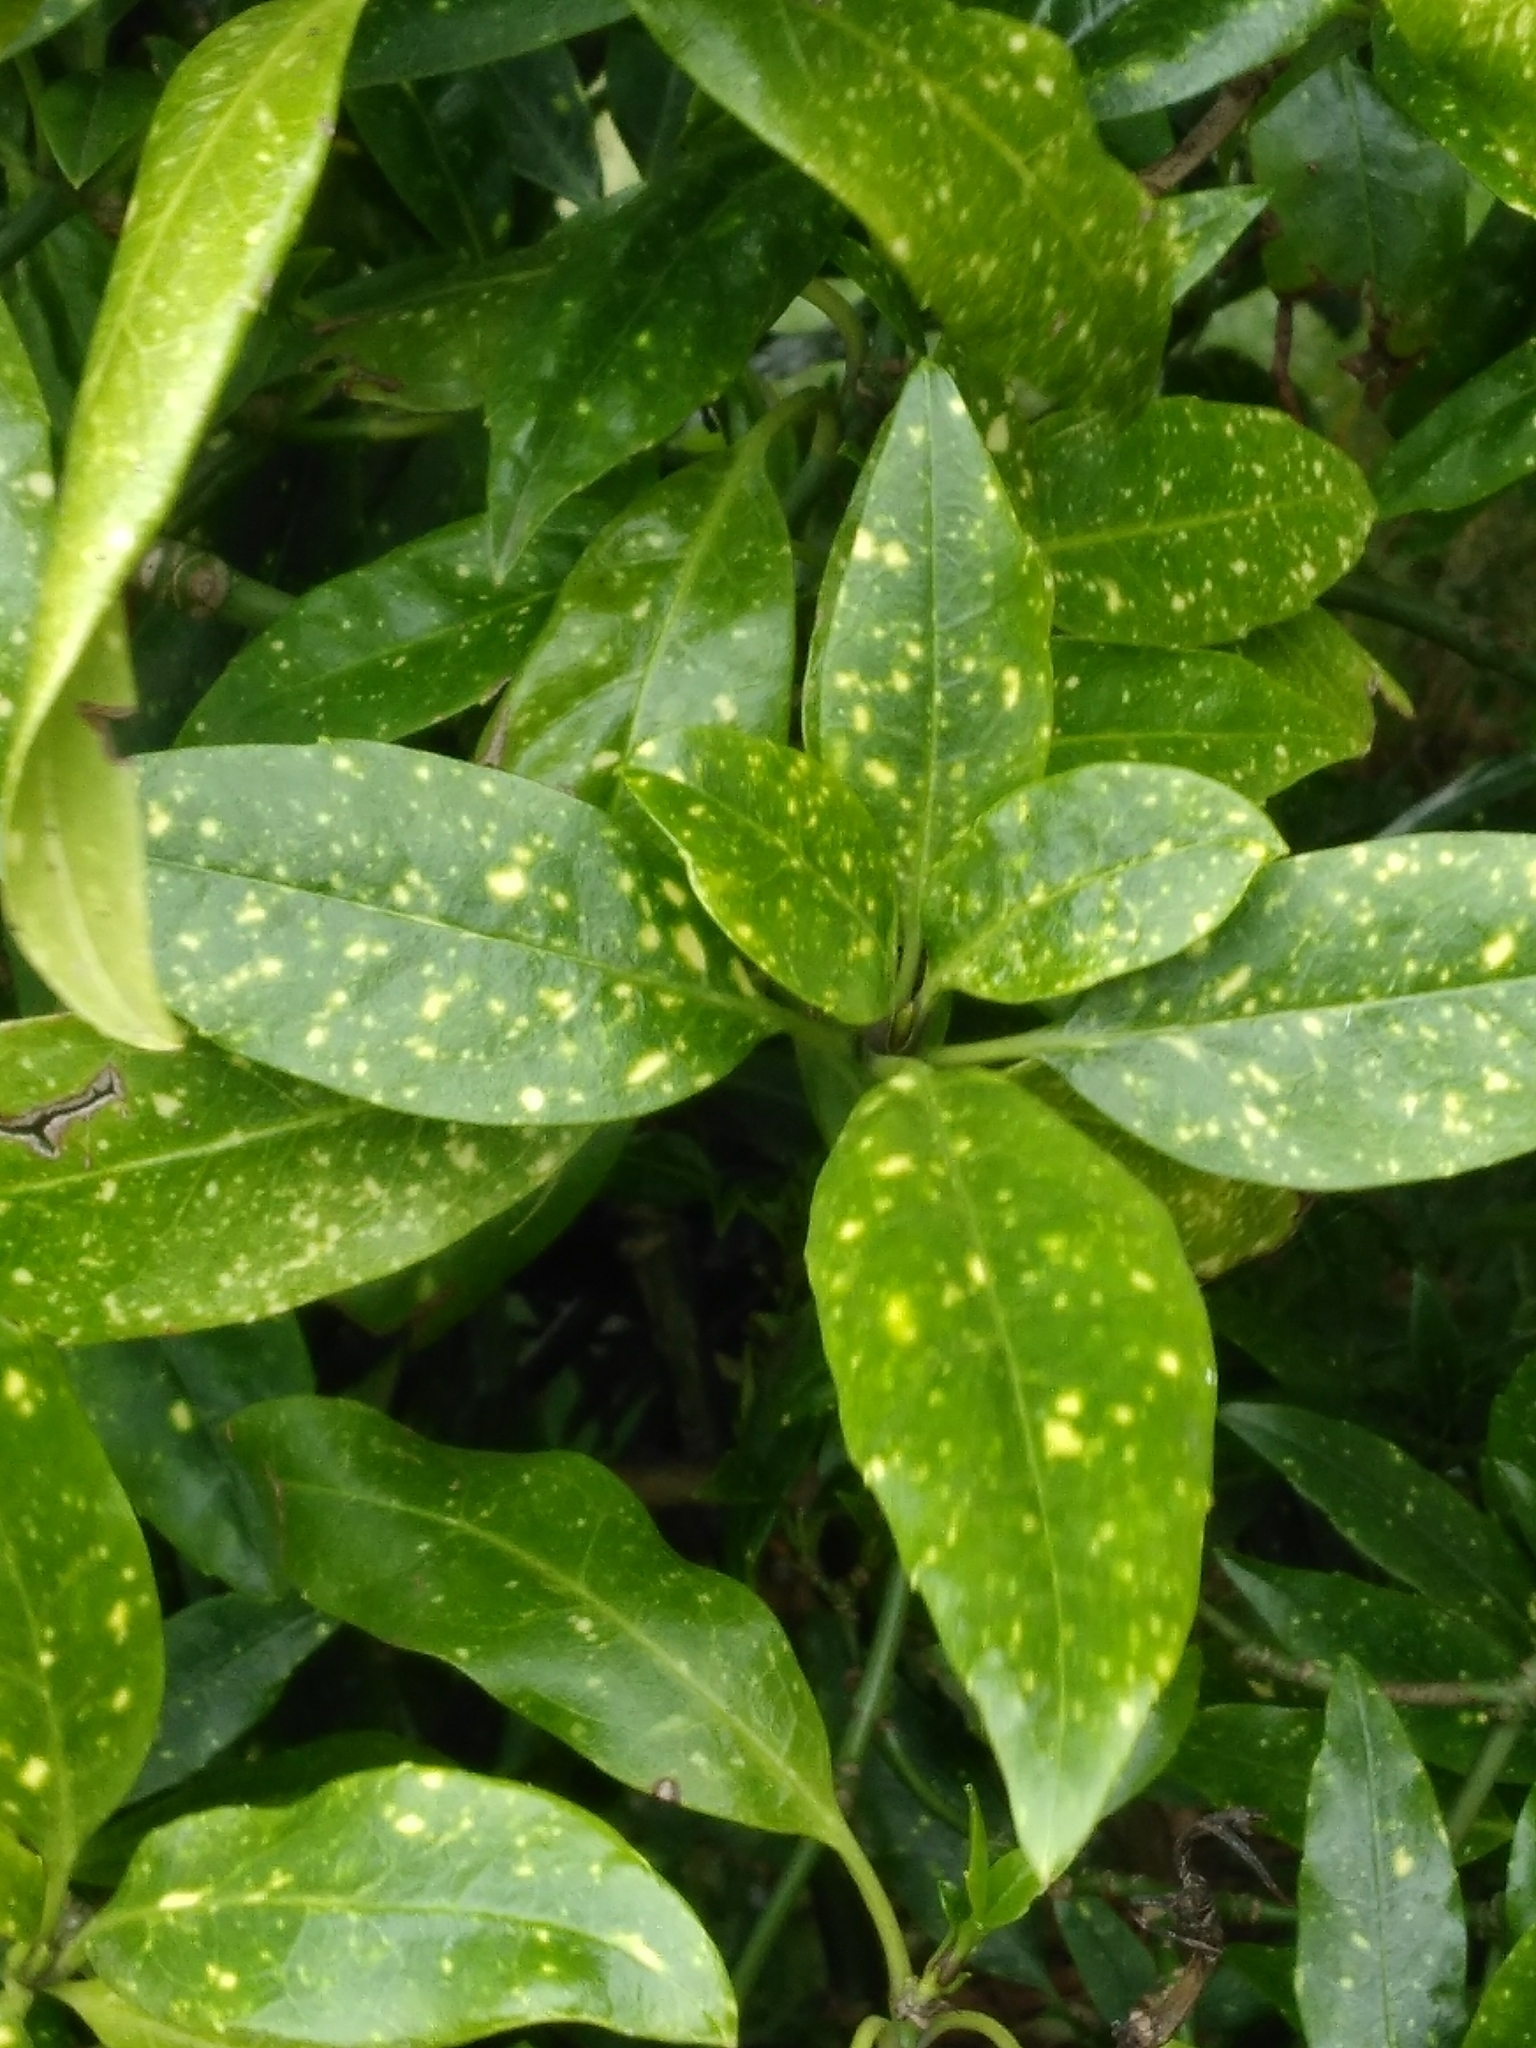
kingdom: Plantae
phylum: Tracheophyta
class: Magnoliopsida
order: Garryales
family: Garryaceae
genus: Aucuba
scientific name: Aucuba japonica
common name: Spotted-laurel
